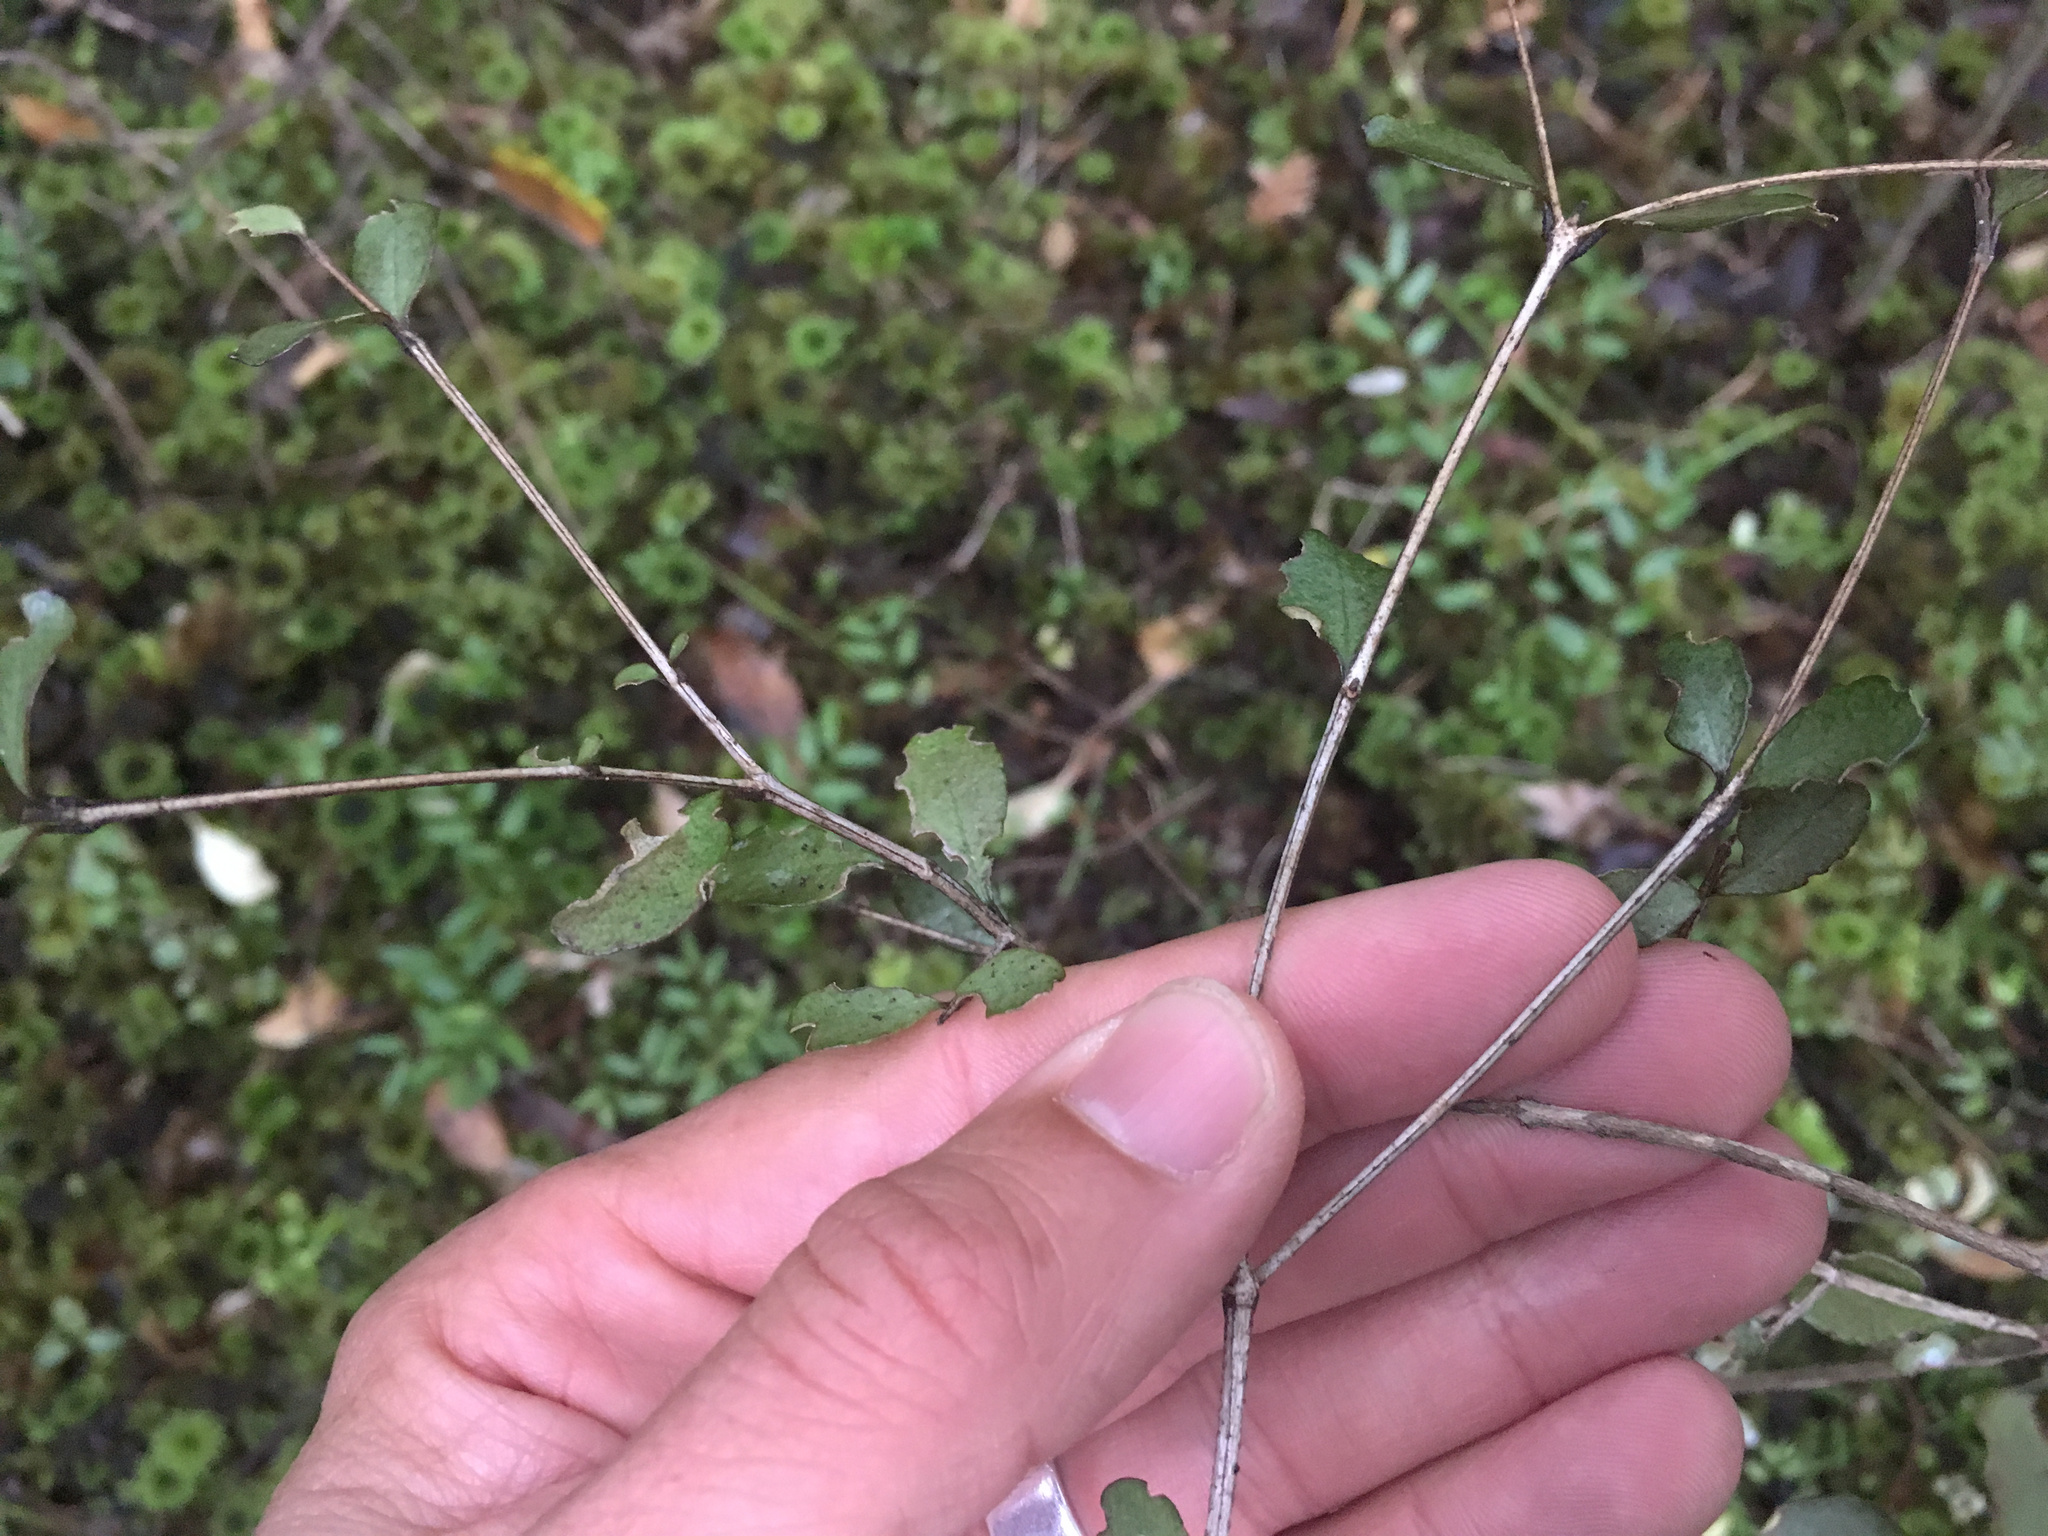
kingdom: Plantae
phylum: Tracheophyta
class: Magnoliopsida
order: Myrtales
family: Myrtaceae
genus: Neomyrtus
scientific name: Neomyrtus pedunculata
